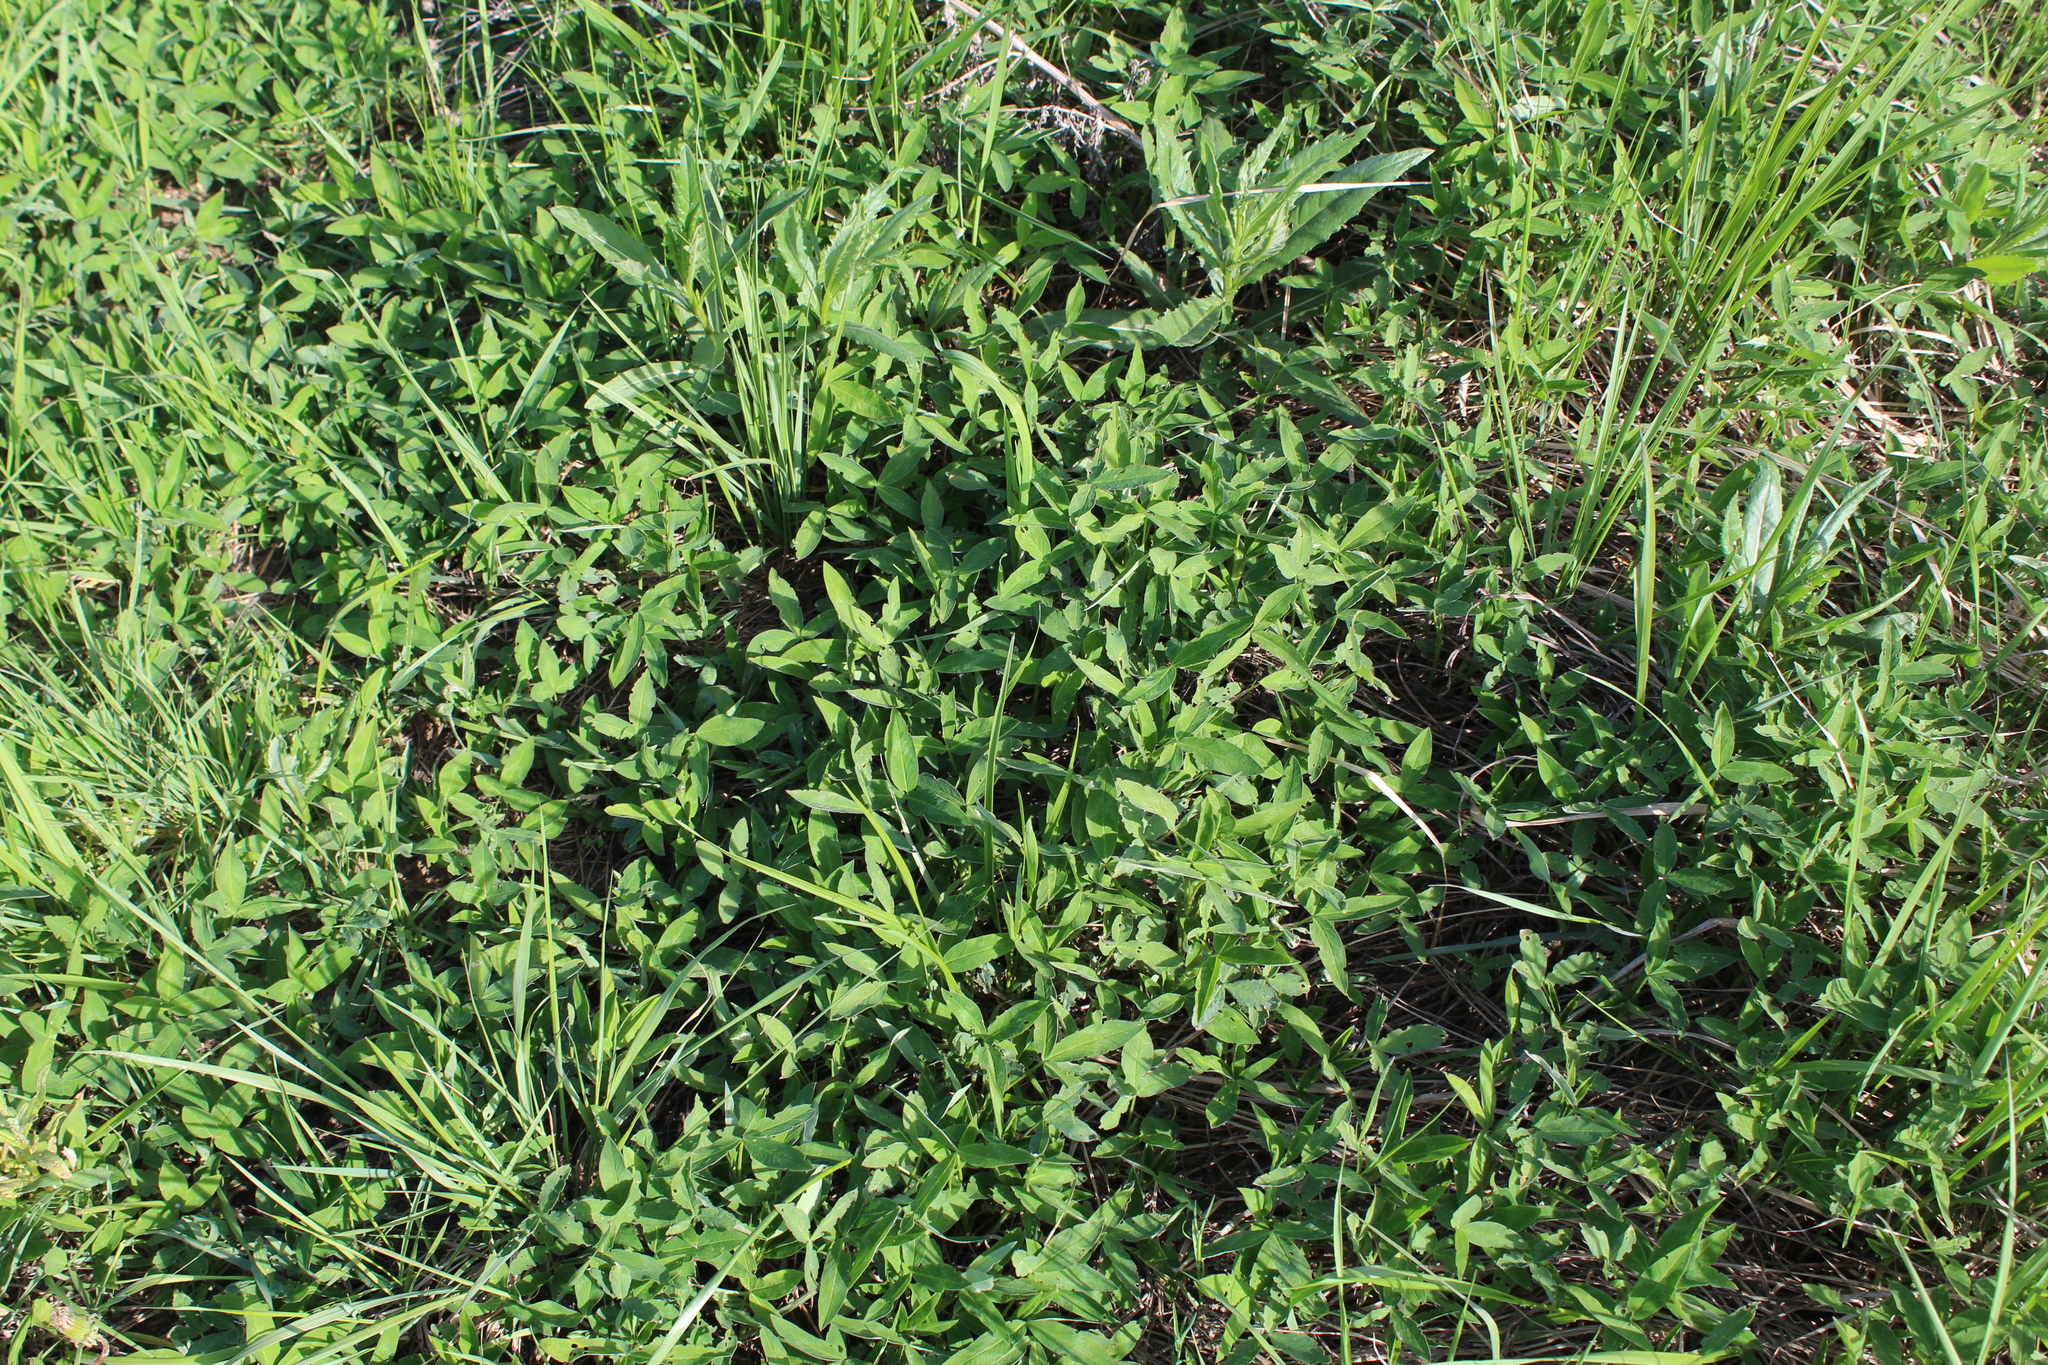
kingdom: Plantae
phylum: Tracheophyta
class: Magnoliopsida
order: Fabales
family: Fabaceae
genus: Trifolium
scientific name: Trifolium medium
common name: Zigzag clover
